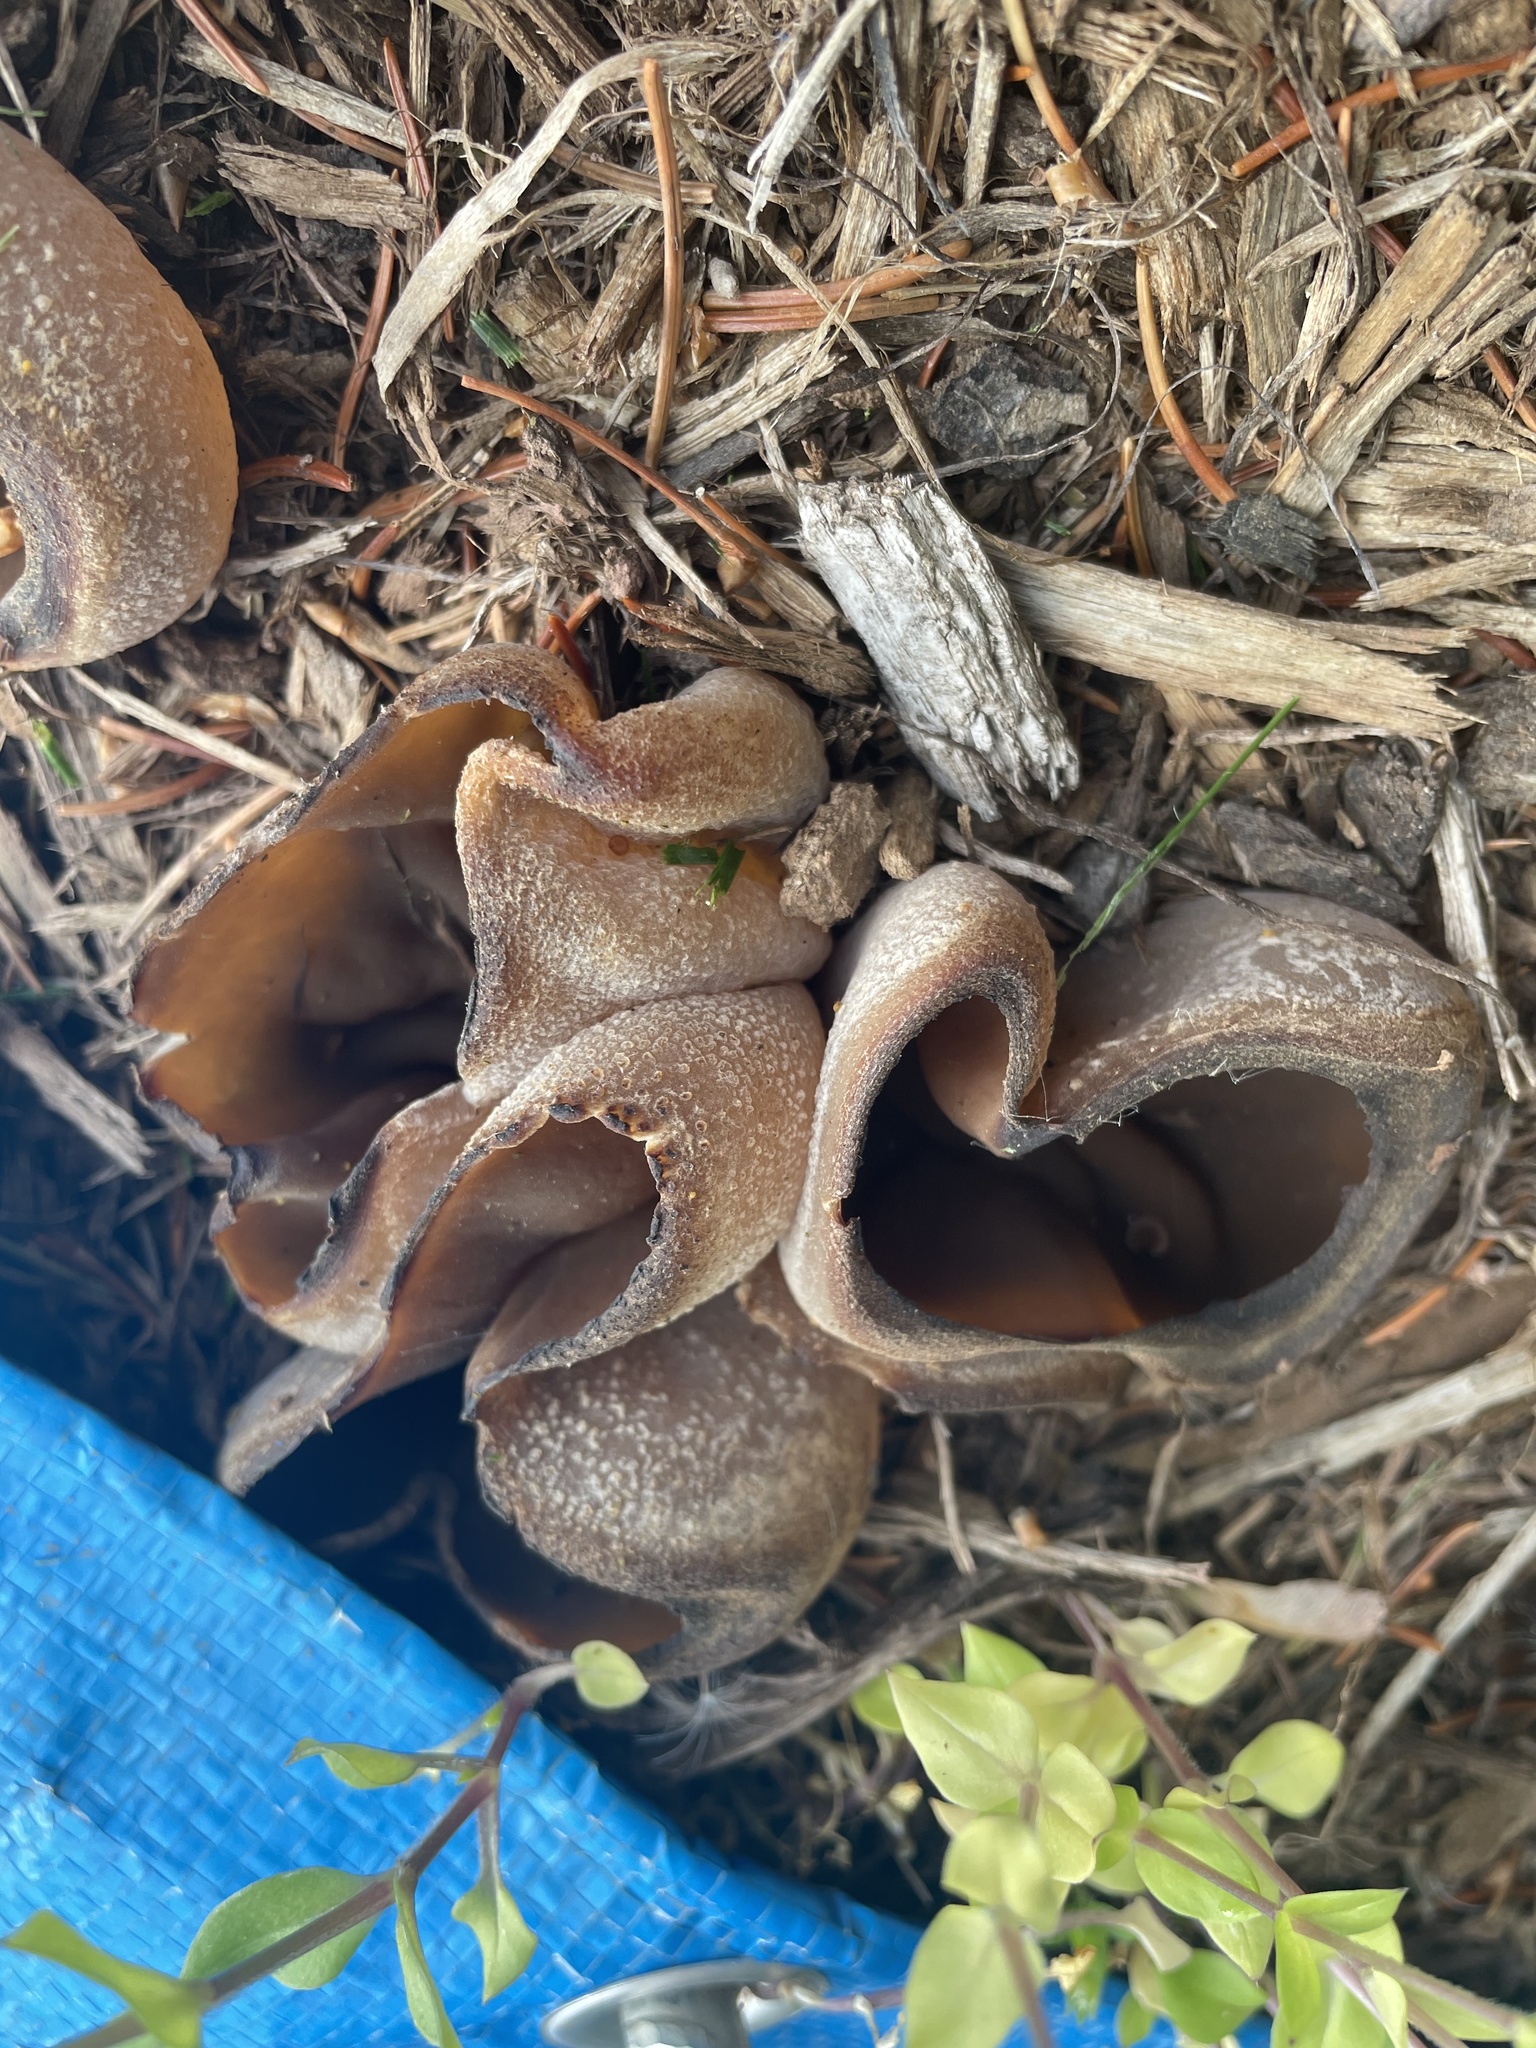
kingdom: Fungi
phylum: Ascomycota
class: Pezizomycetes
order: Pezizales
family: Pezizaceae
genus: Phylloscypha
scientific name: Phylloscypha phyllogena
